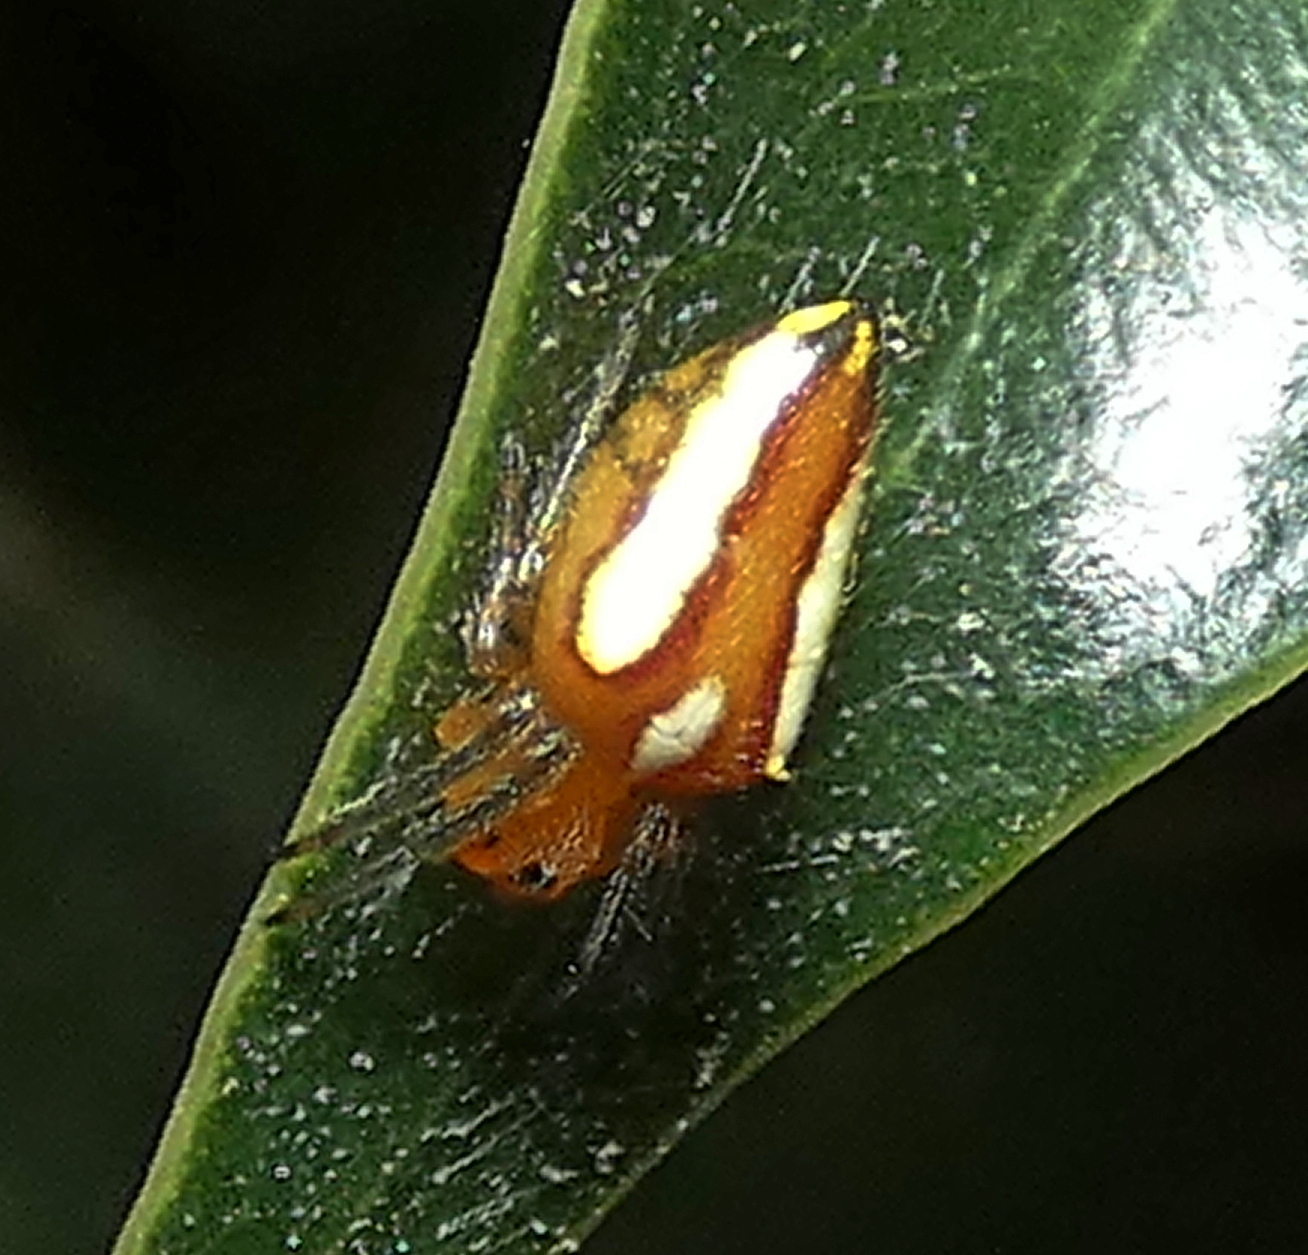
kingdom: Animalia
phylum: Arthropoda
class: Arachnida
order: Araneae
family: Araneidae
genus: Alpaida
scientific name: Alpaida bicornuta
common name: Orb weavers
